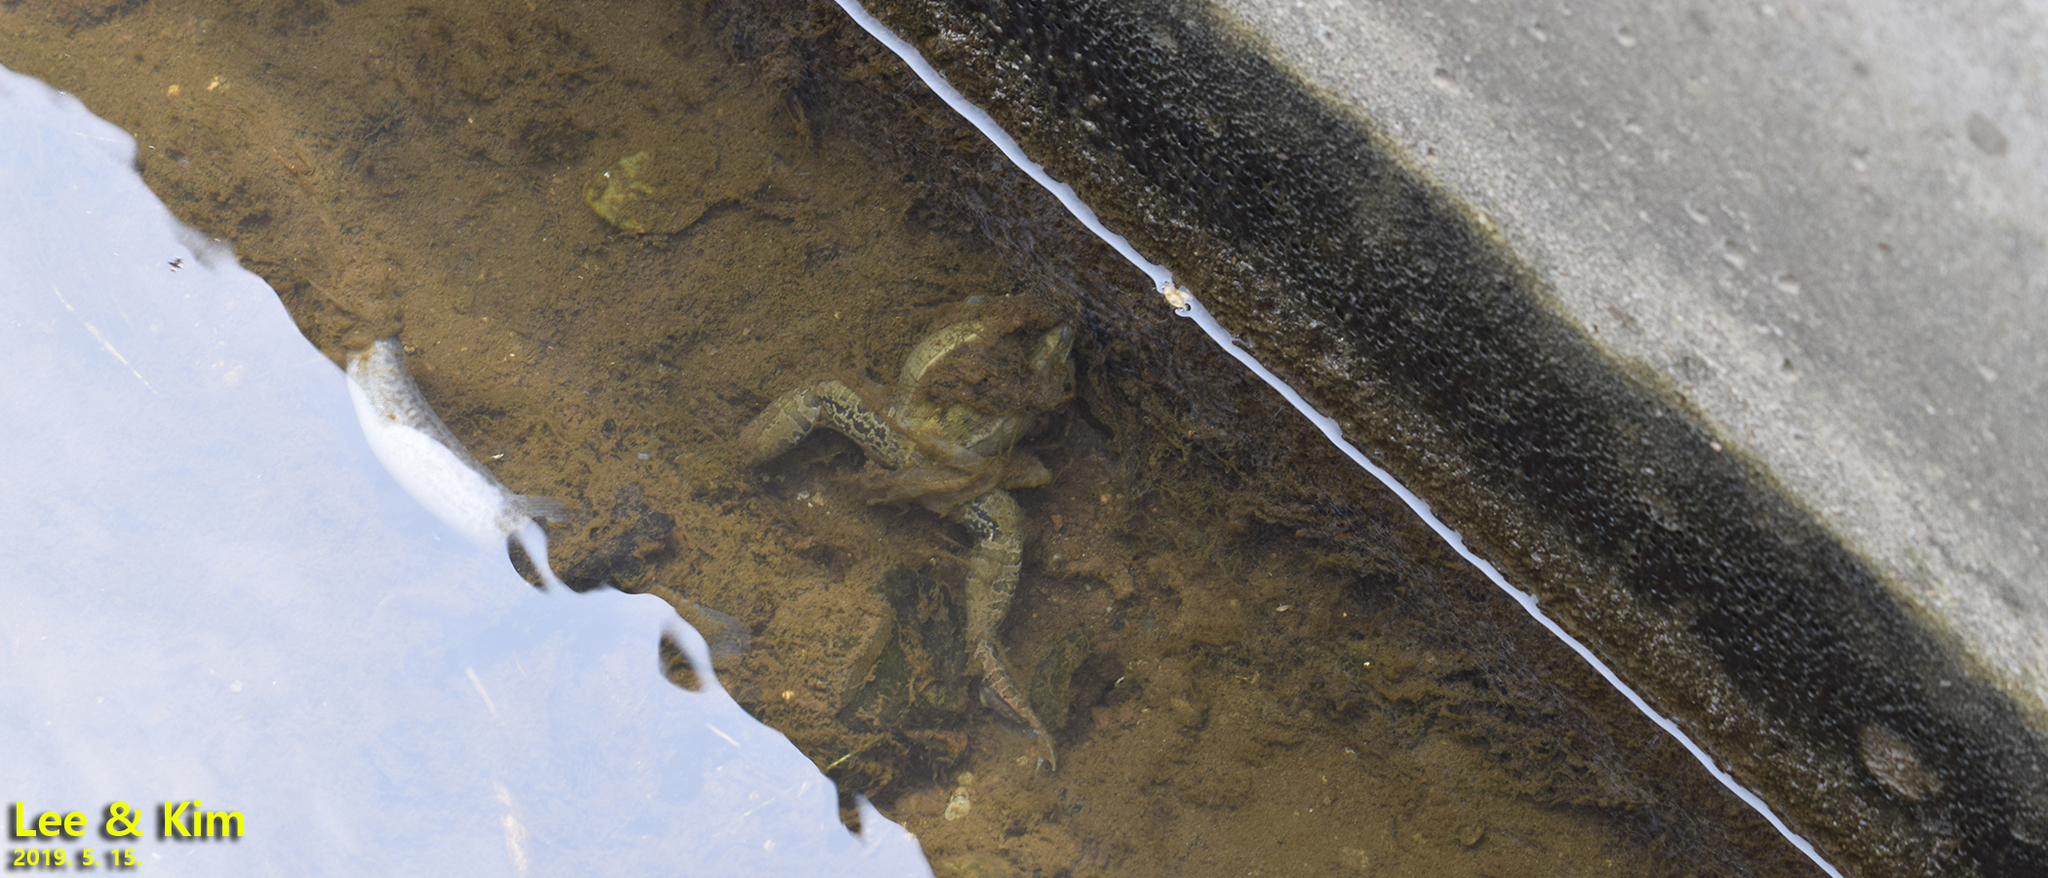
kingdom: Animalia
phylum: Chordata
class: Amphibia
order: Anura
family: Ranidae
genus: Pelophylax
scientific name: Pelophylax nigromaculatus
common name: Black-spotted pond frog
